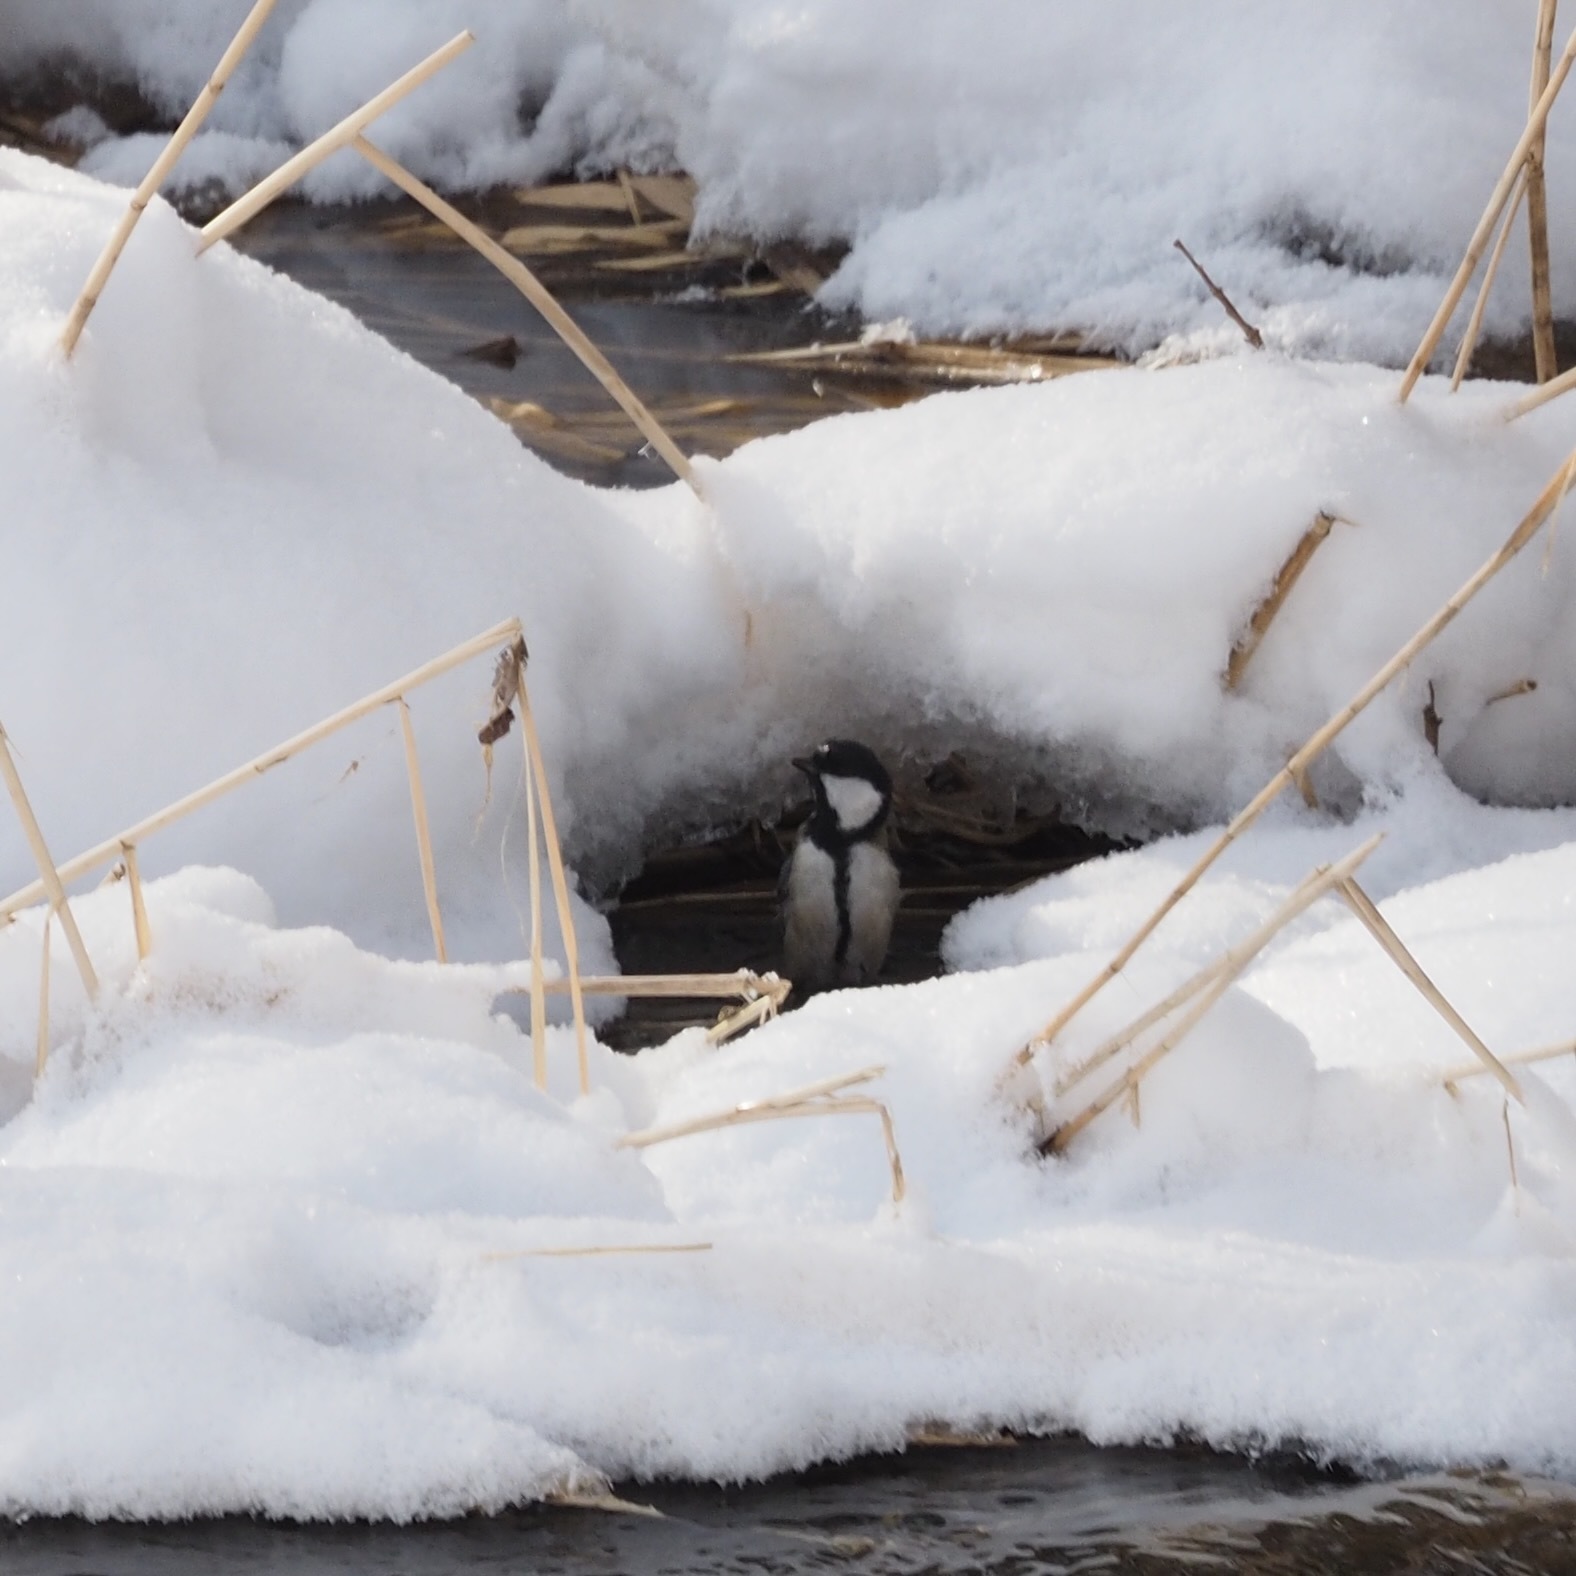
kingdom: Animalia
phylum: Chordata
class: Aves
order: Passeriformes
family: Paridae
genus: Parus
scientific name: Parus minor
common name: Japanese tit
